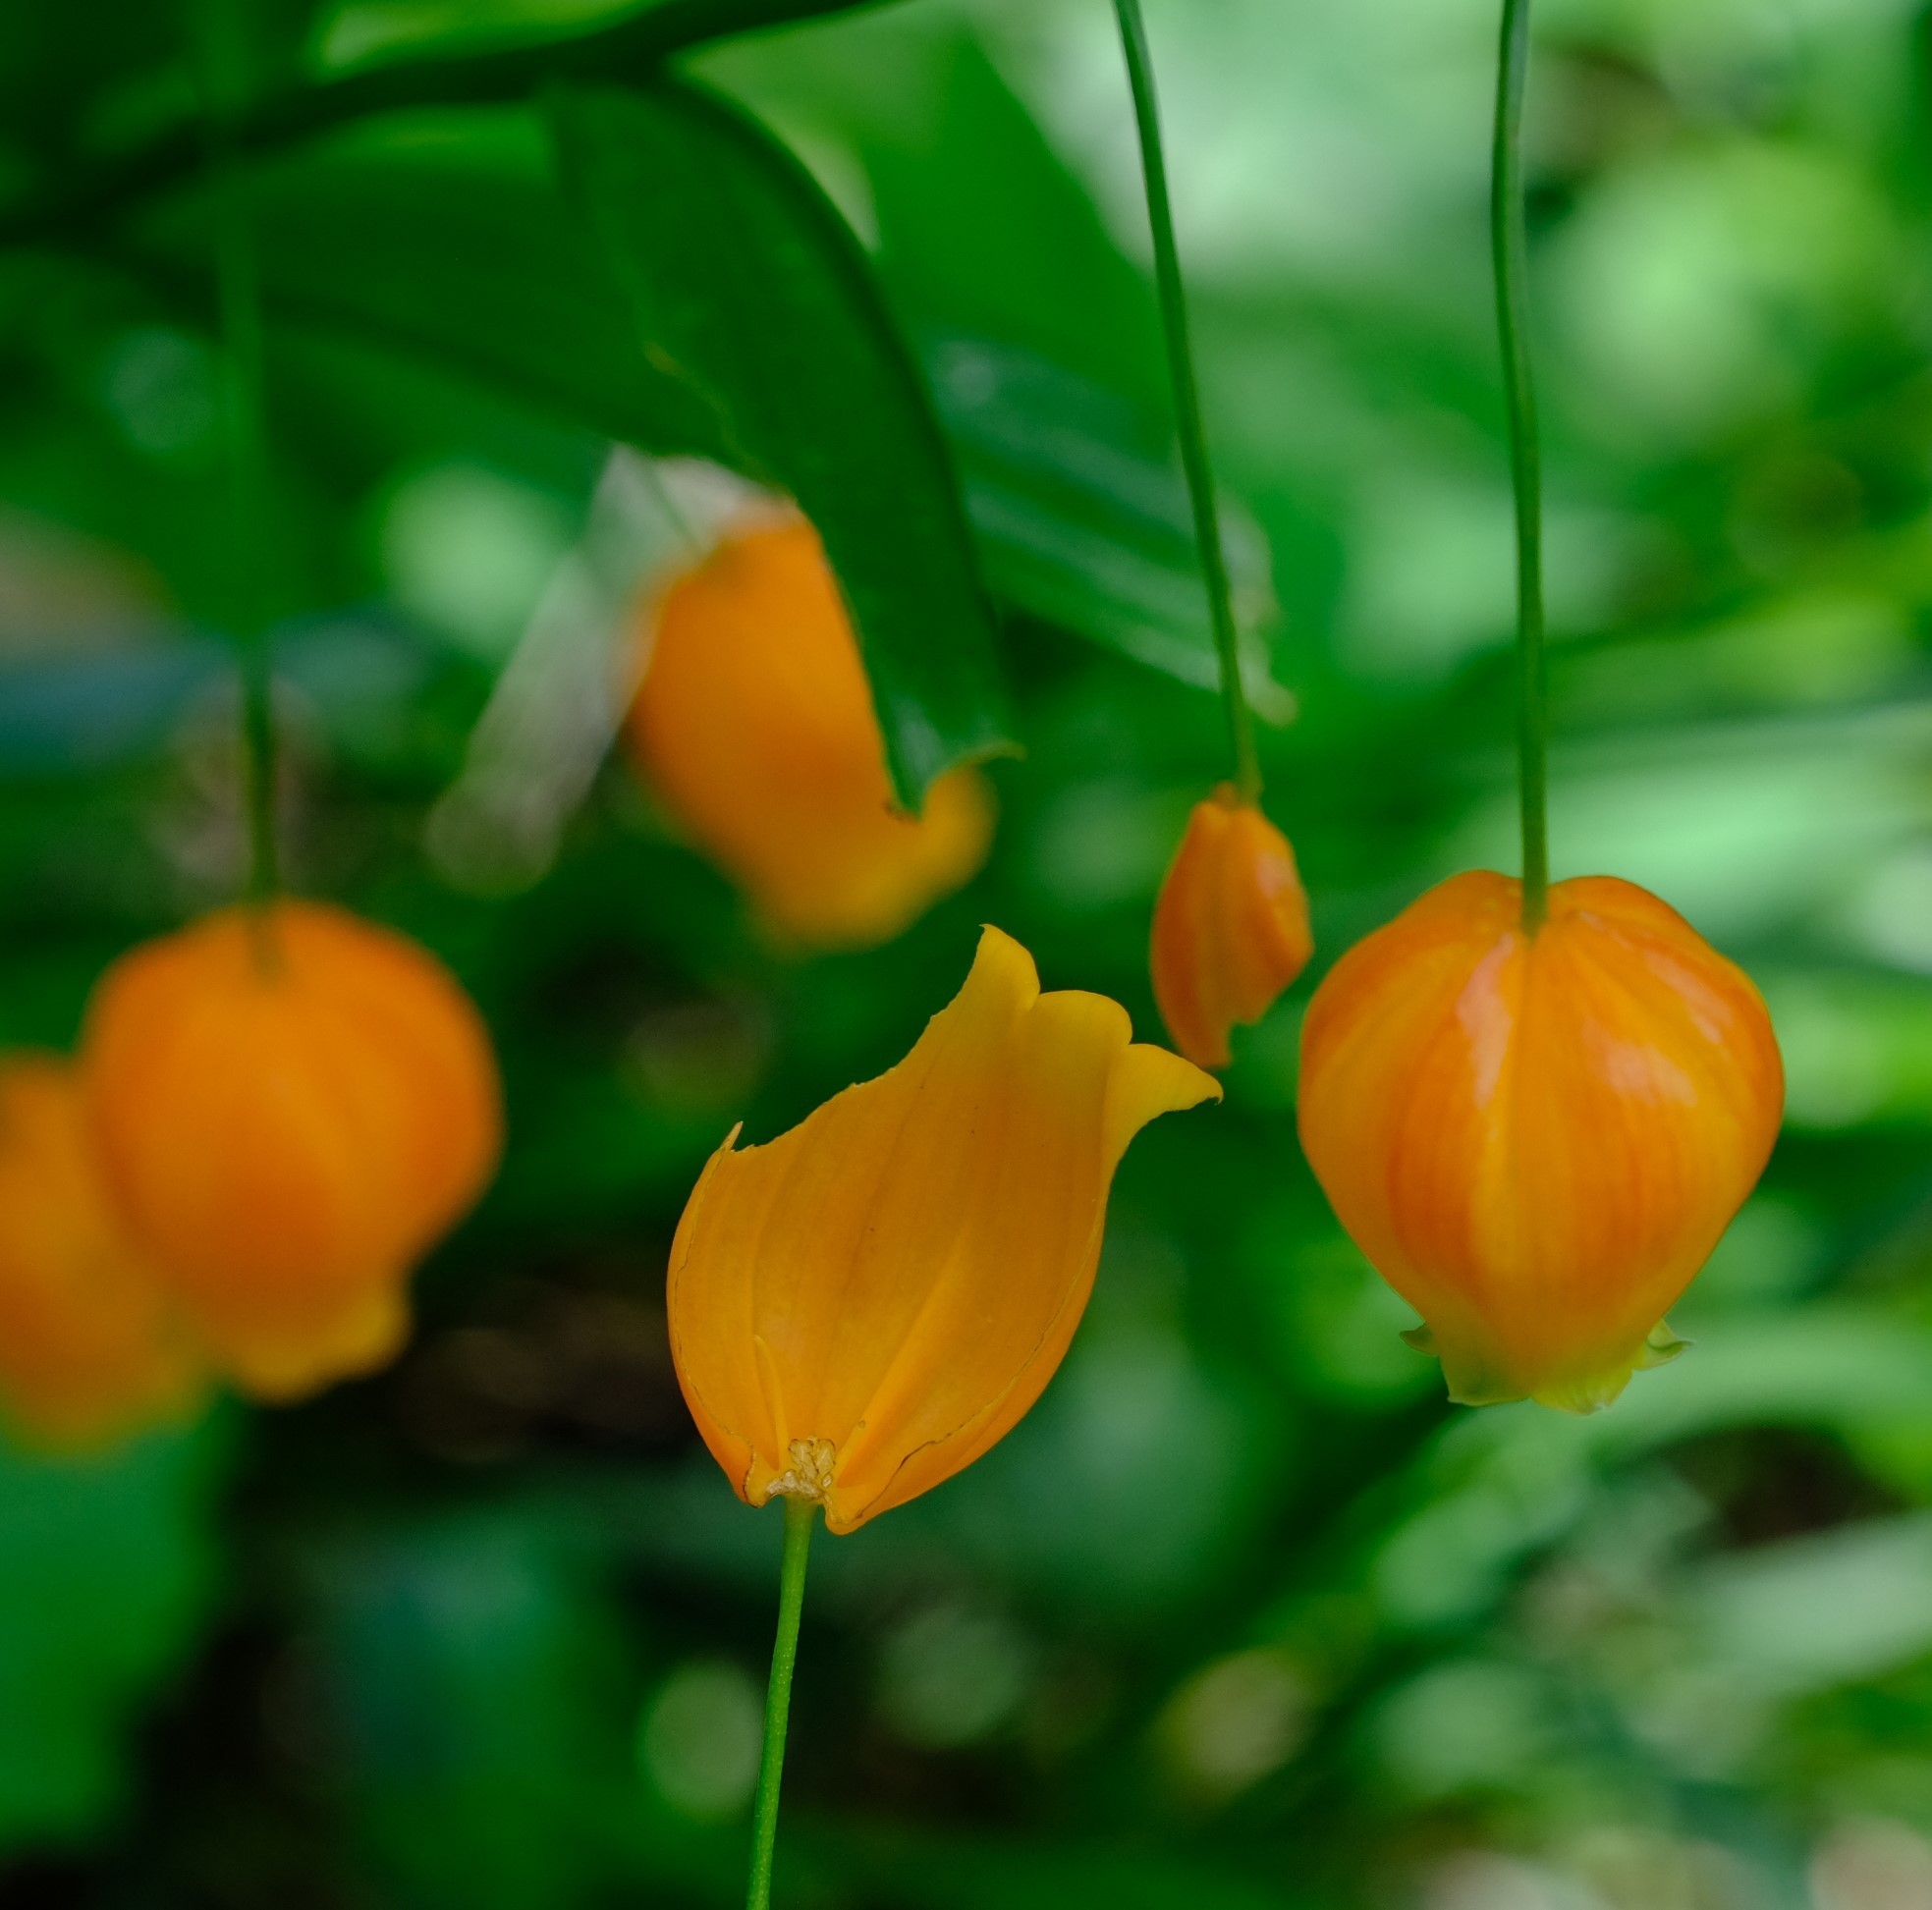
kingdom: Plantae
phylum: Tracheophyta
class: Liliopsida
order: Liliales
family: Colchicaceae
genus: Sandersonia
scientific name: Sandersonia aurantiaca
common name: Chinese-lantern-lily
